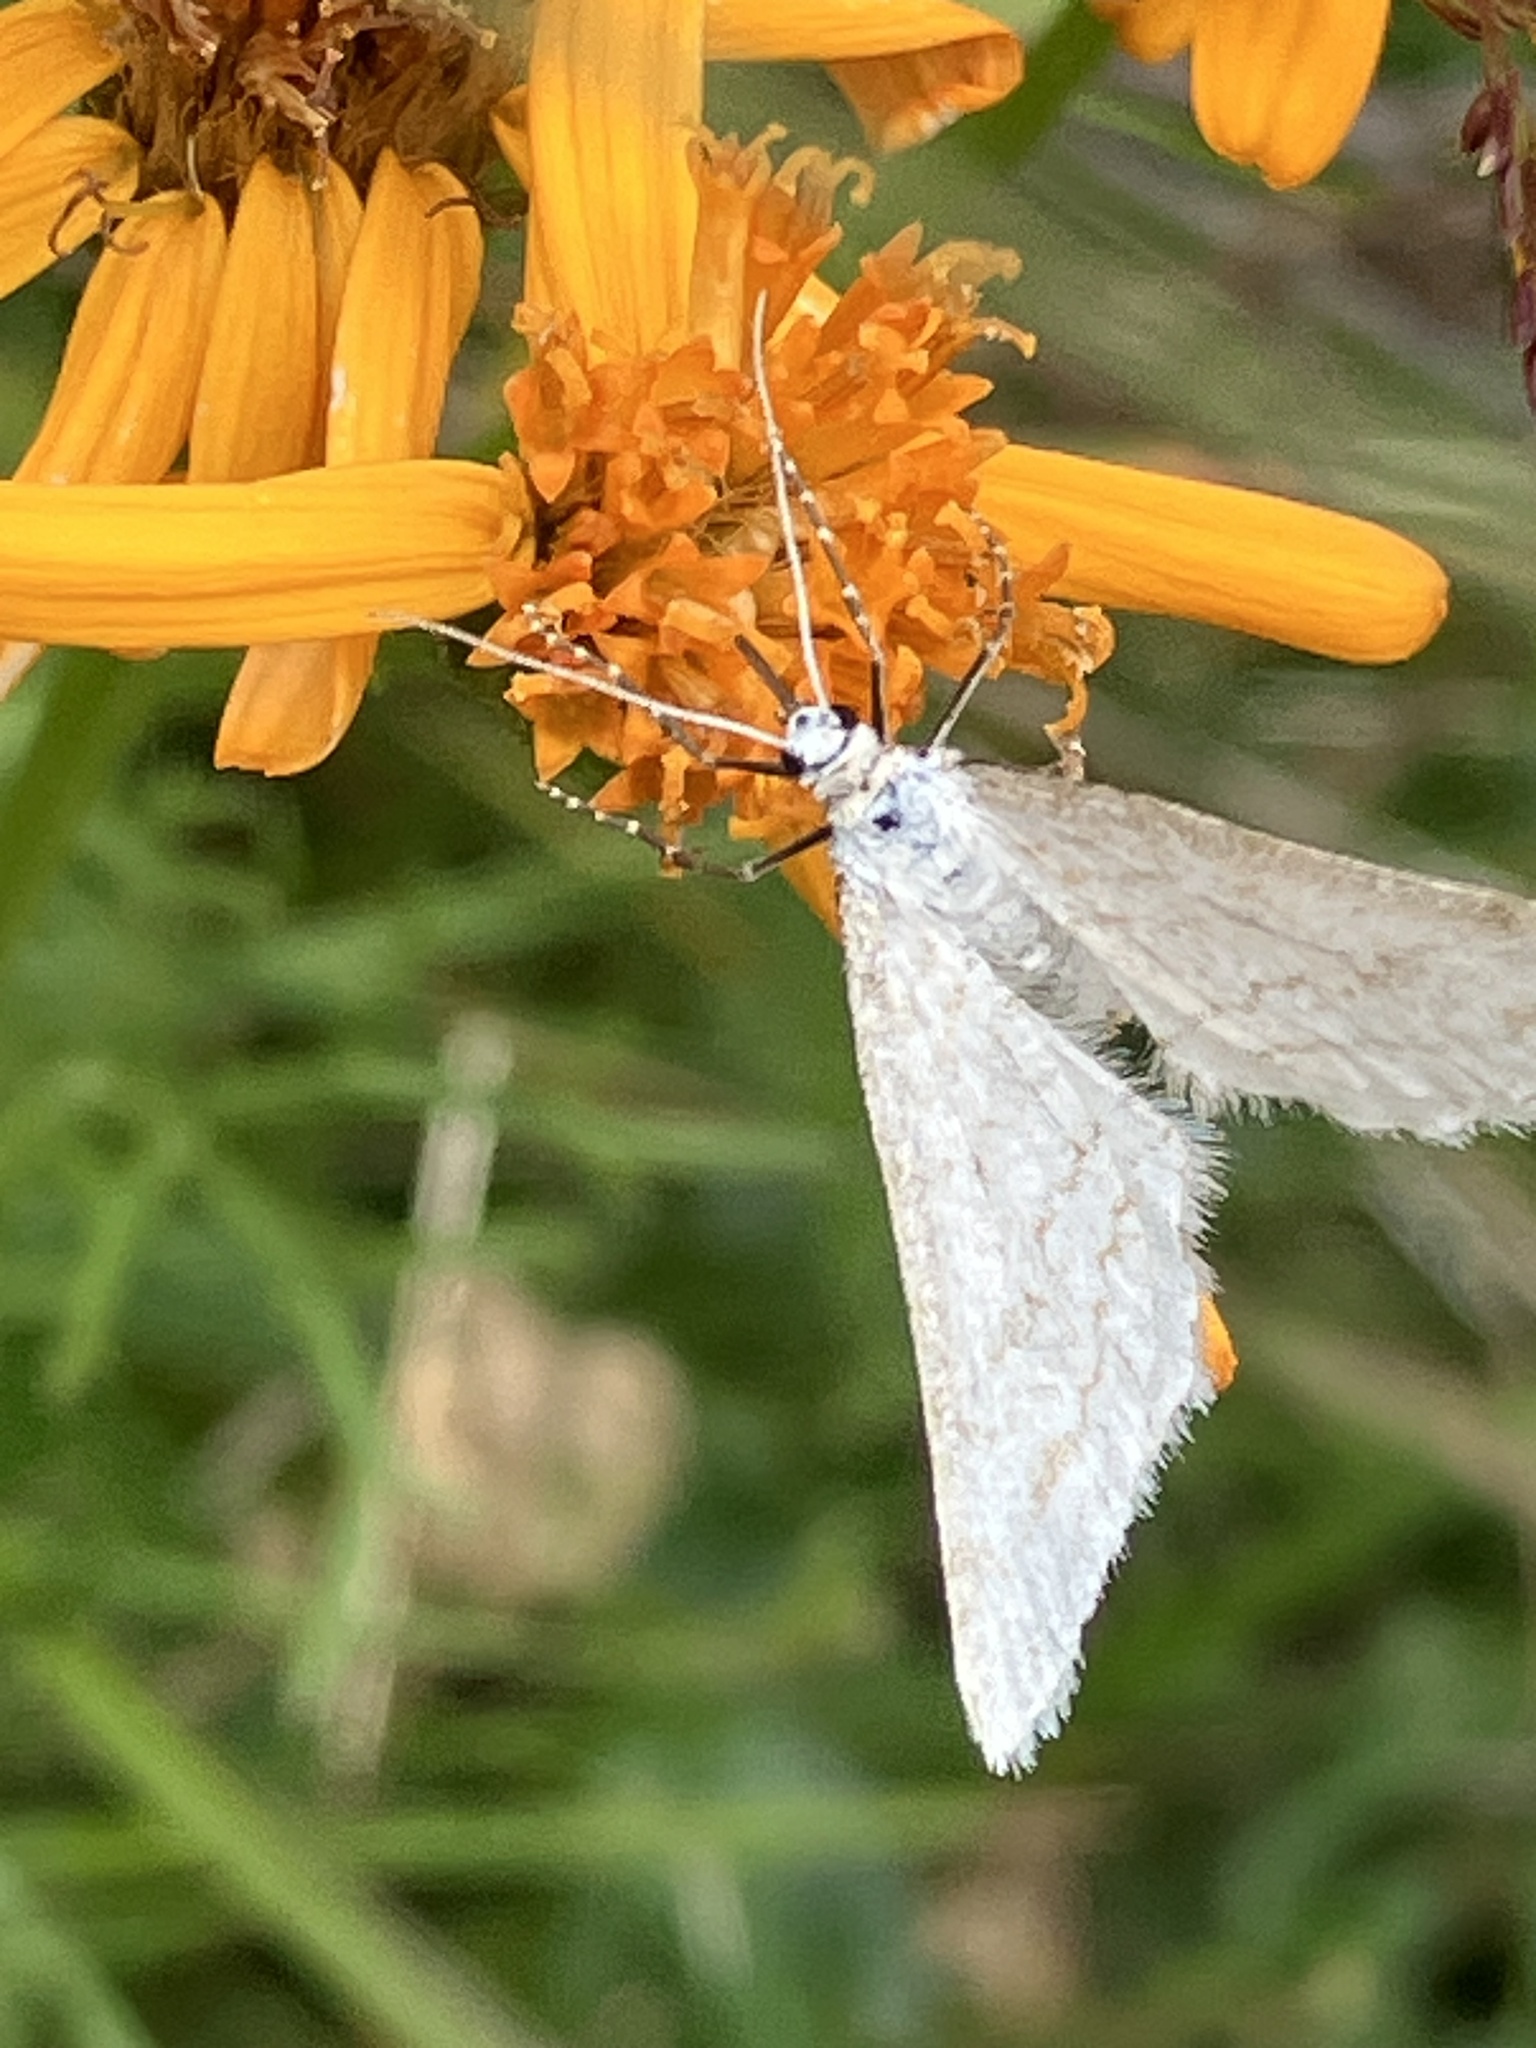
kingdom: Animalia
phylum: Arthropoda
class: Insecta
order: Lepidoptera
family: Geometridae
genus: Perizoma
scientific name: Perizoma verberata
